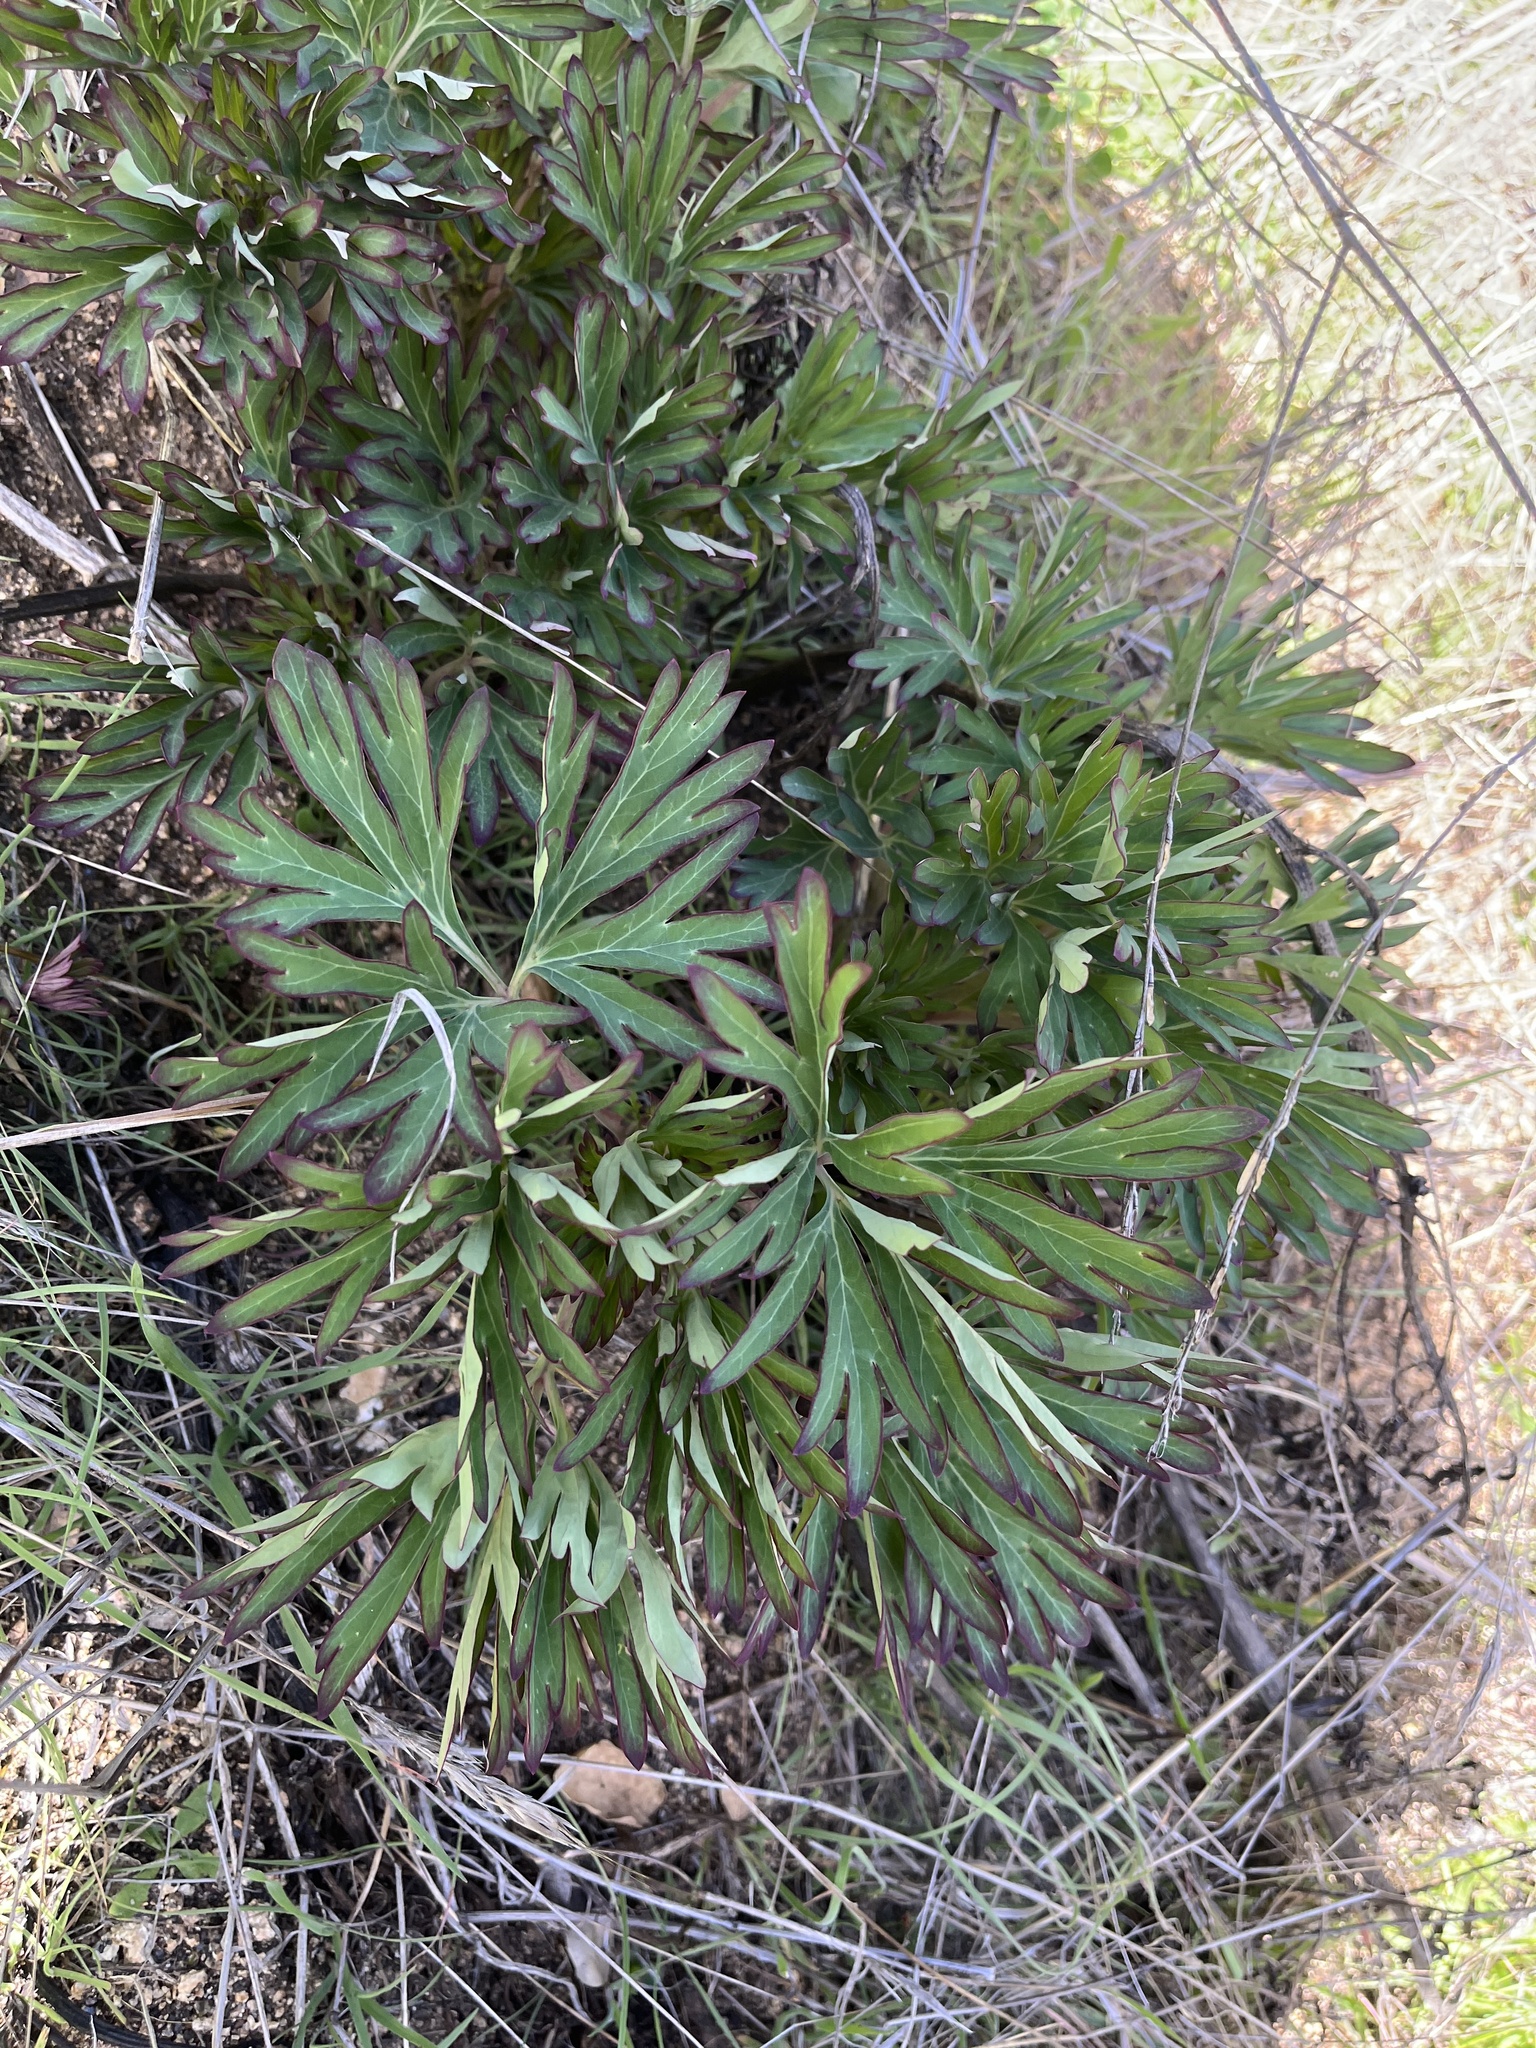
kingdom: Plantae
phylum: Tracheophyta
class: Magnoliopsida
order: Saxifragales
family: Paeoniaceae
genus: Paeonia
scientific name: Paeonia californica
